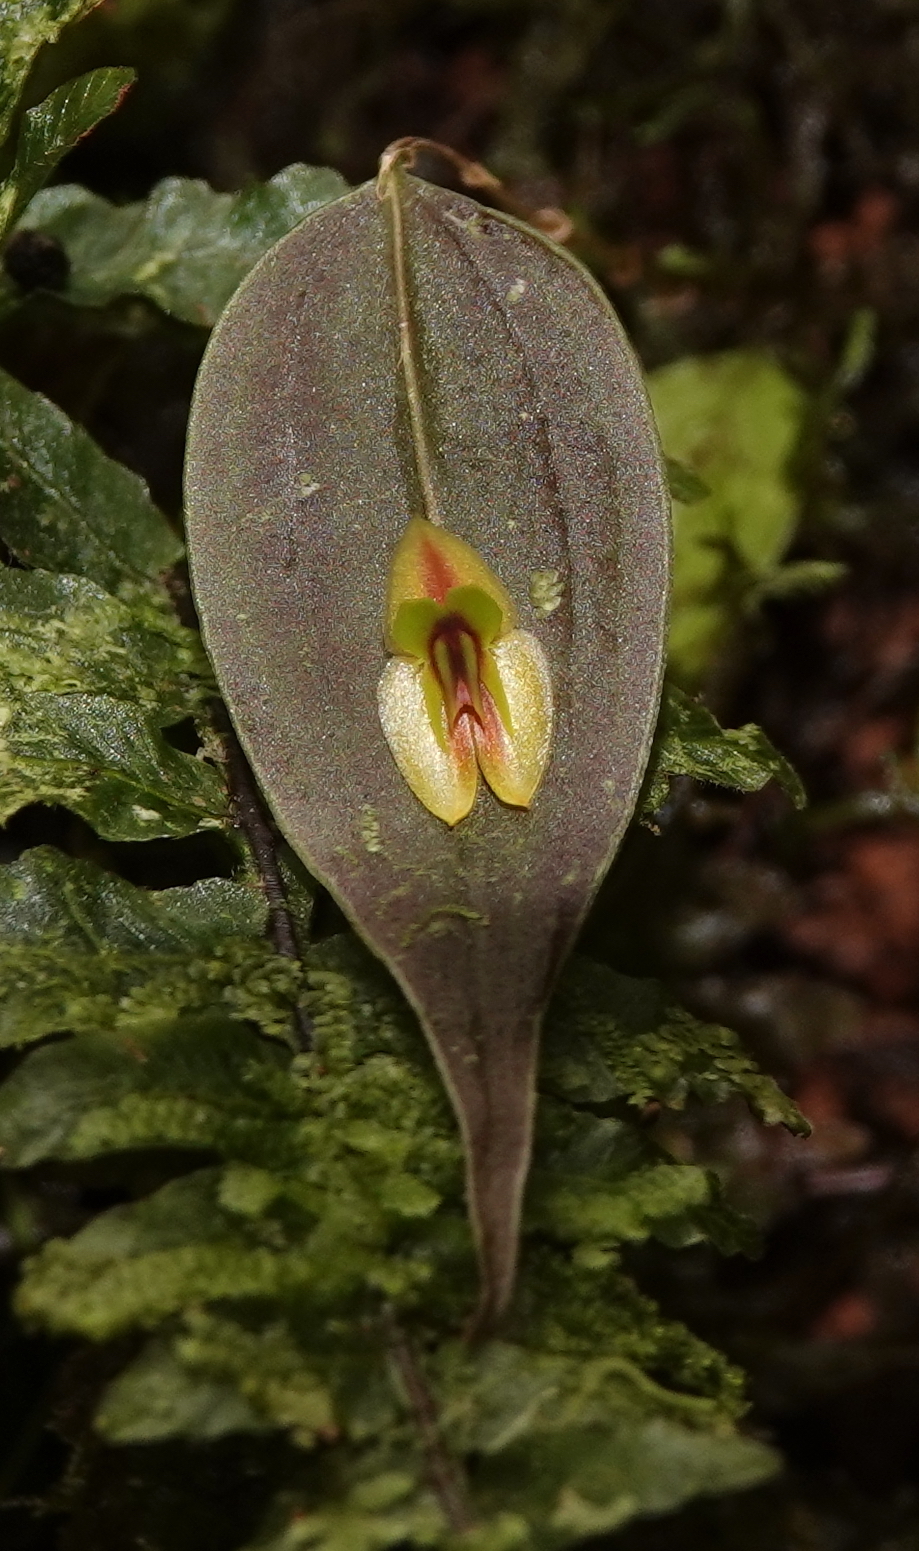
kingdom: Plantae
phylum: Tracheophyta
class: Liliopsida
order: Asparagales
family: Orchidaceae
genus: Lepanthes
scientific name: Lepanthes montezumae
